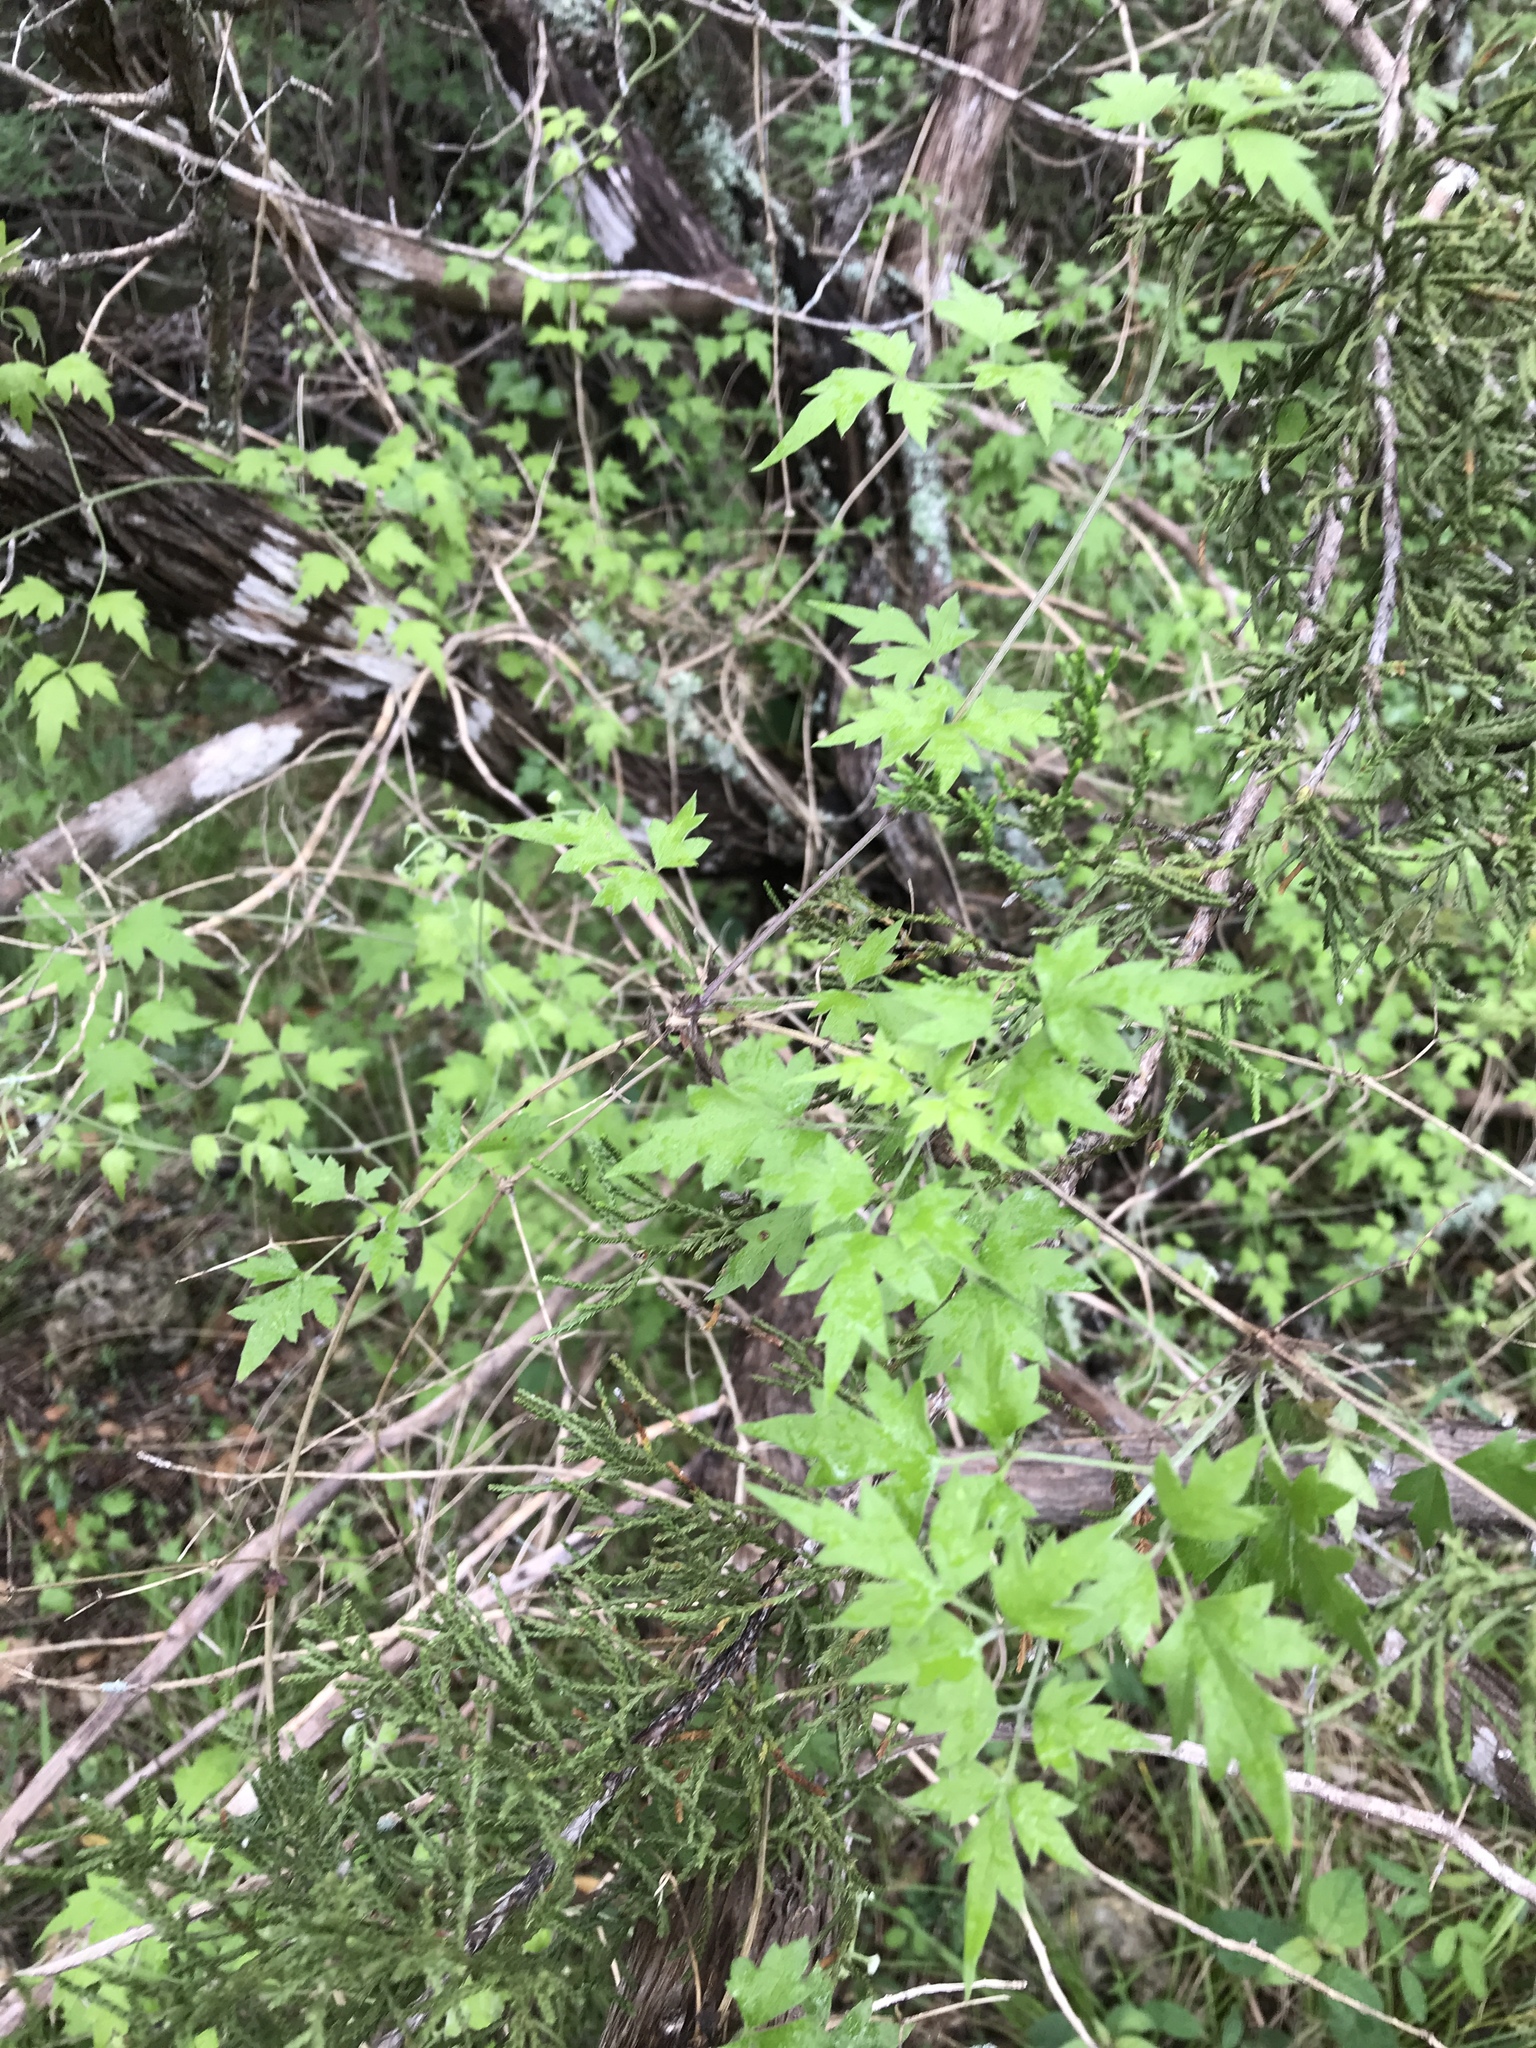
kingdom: Plantae
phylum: Tracheophyta
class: Magnoliopsida
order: Ranunculales
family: Ranunculaceae
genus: Clematis
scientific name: Clematis drummondii
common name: Texas virgin's bower
